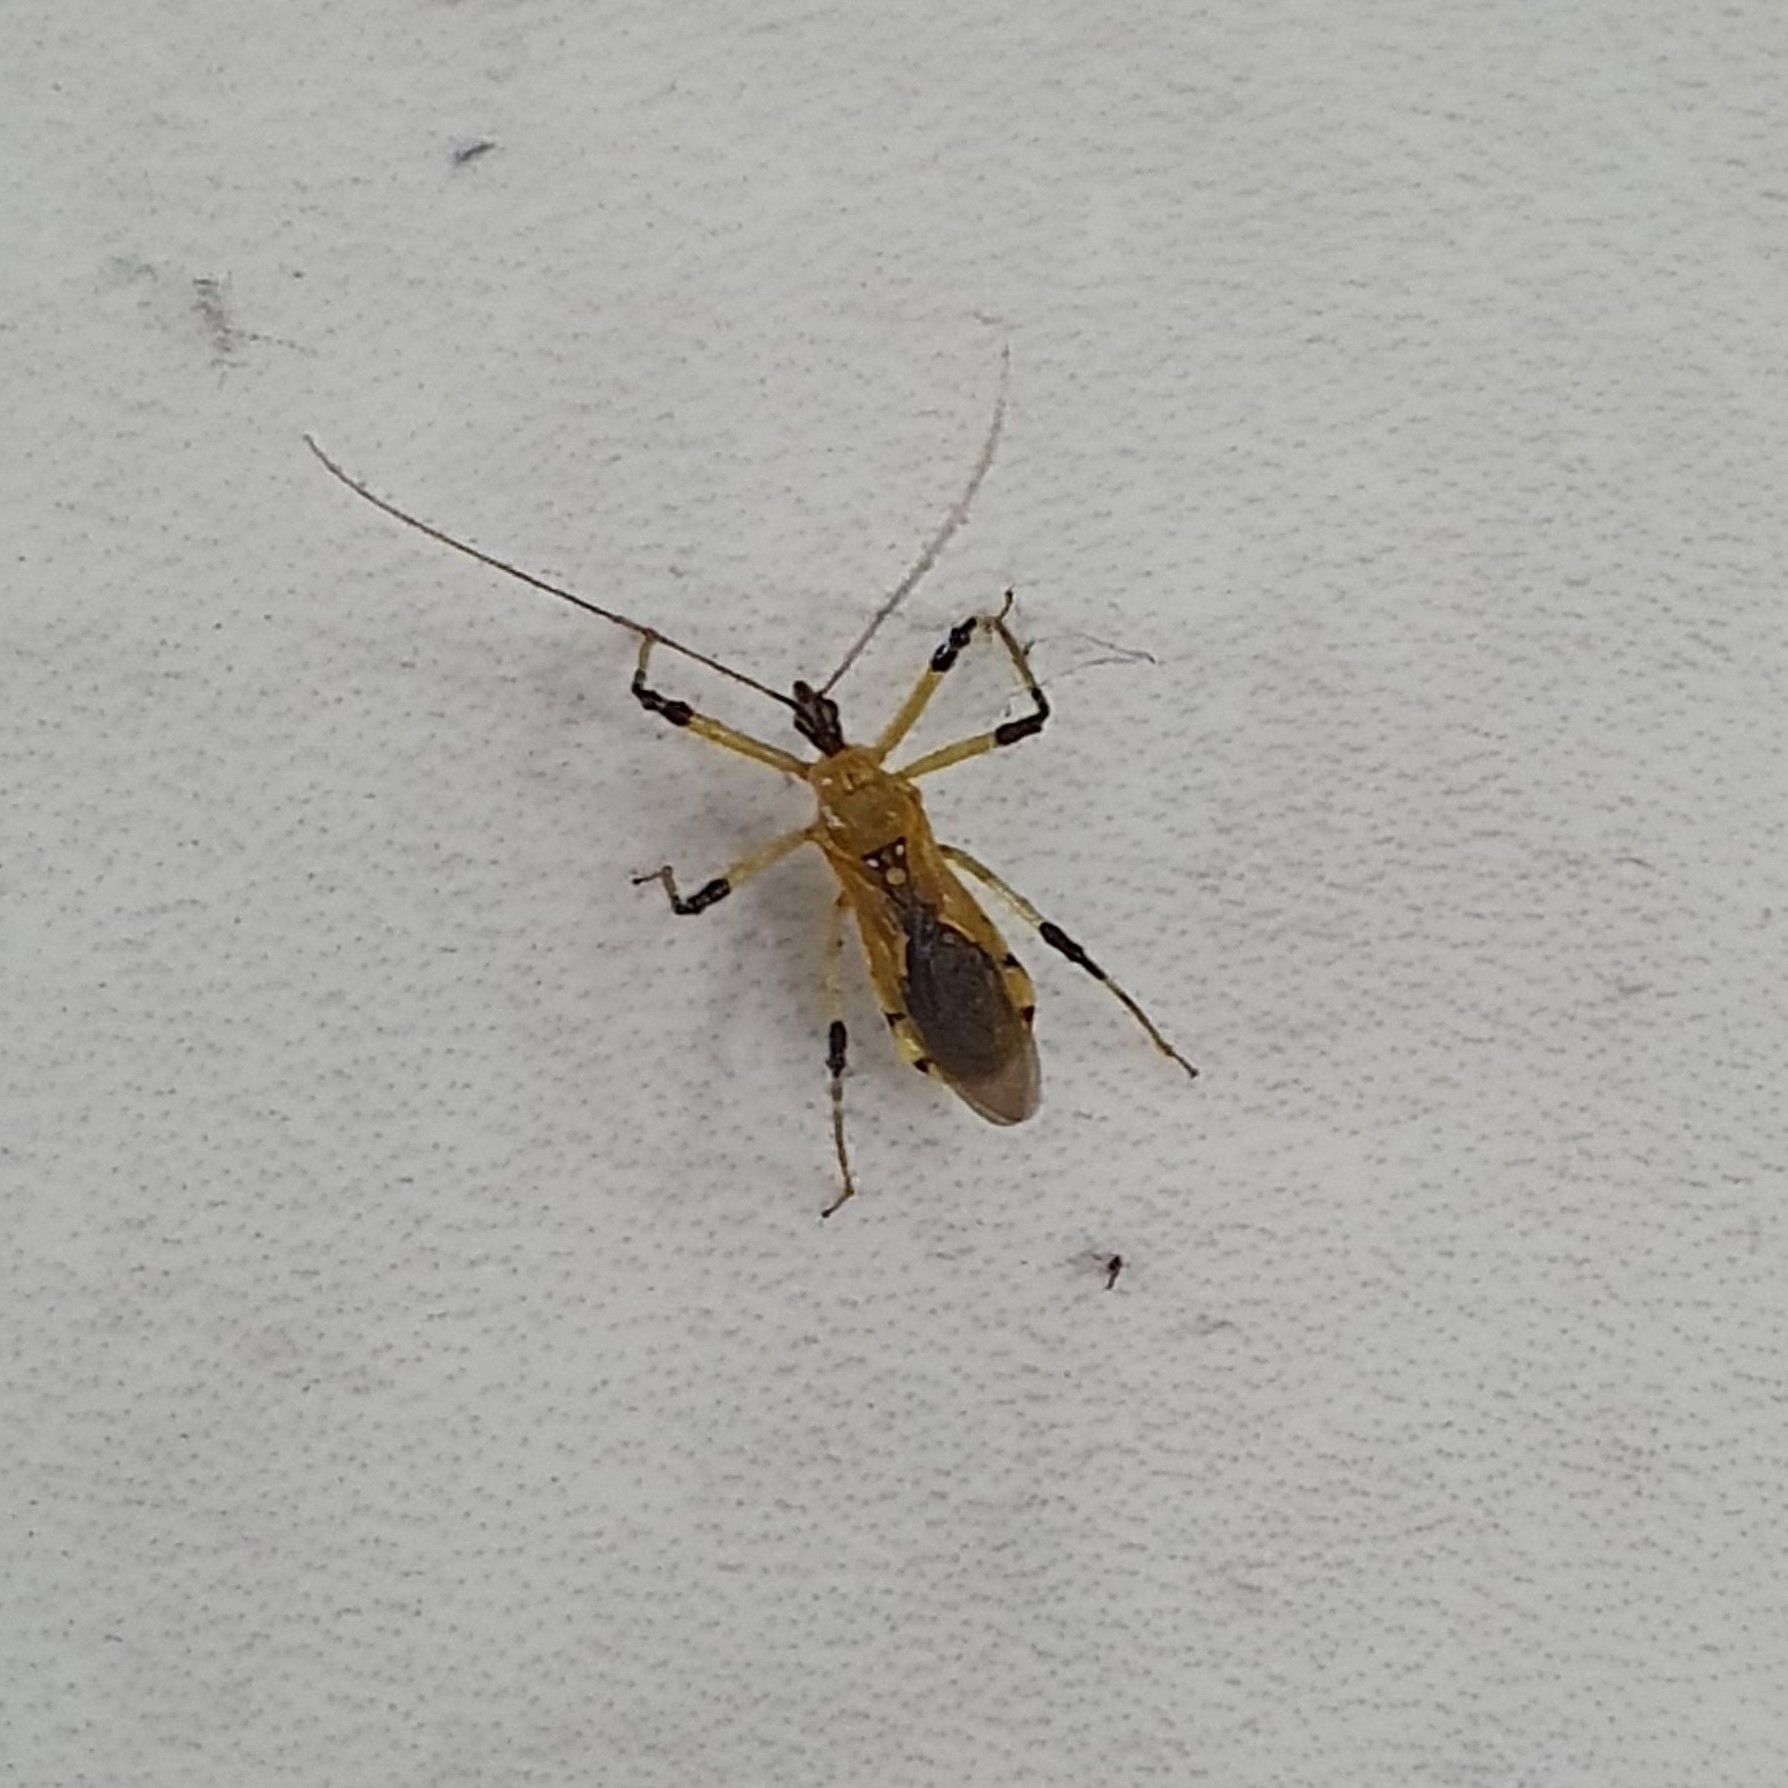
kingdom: Animalia
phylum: Arthropoda
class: Insecta
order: Hemiptera
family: Reduviidae
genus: Cosmolestes
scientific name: Cosmolestes picticeps
